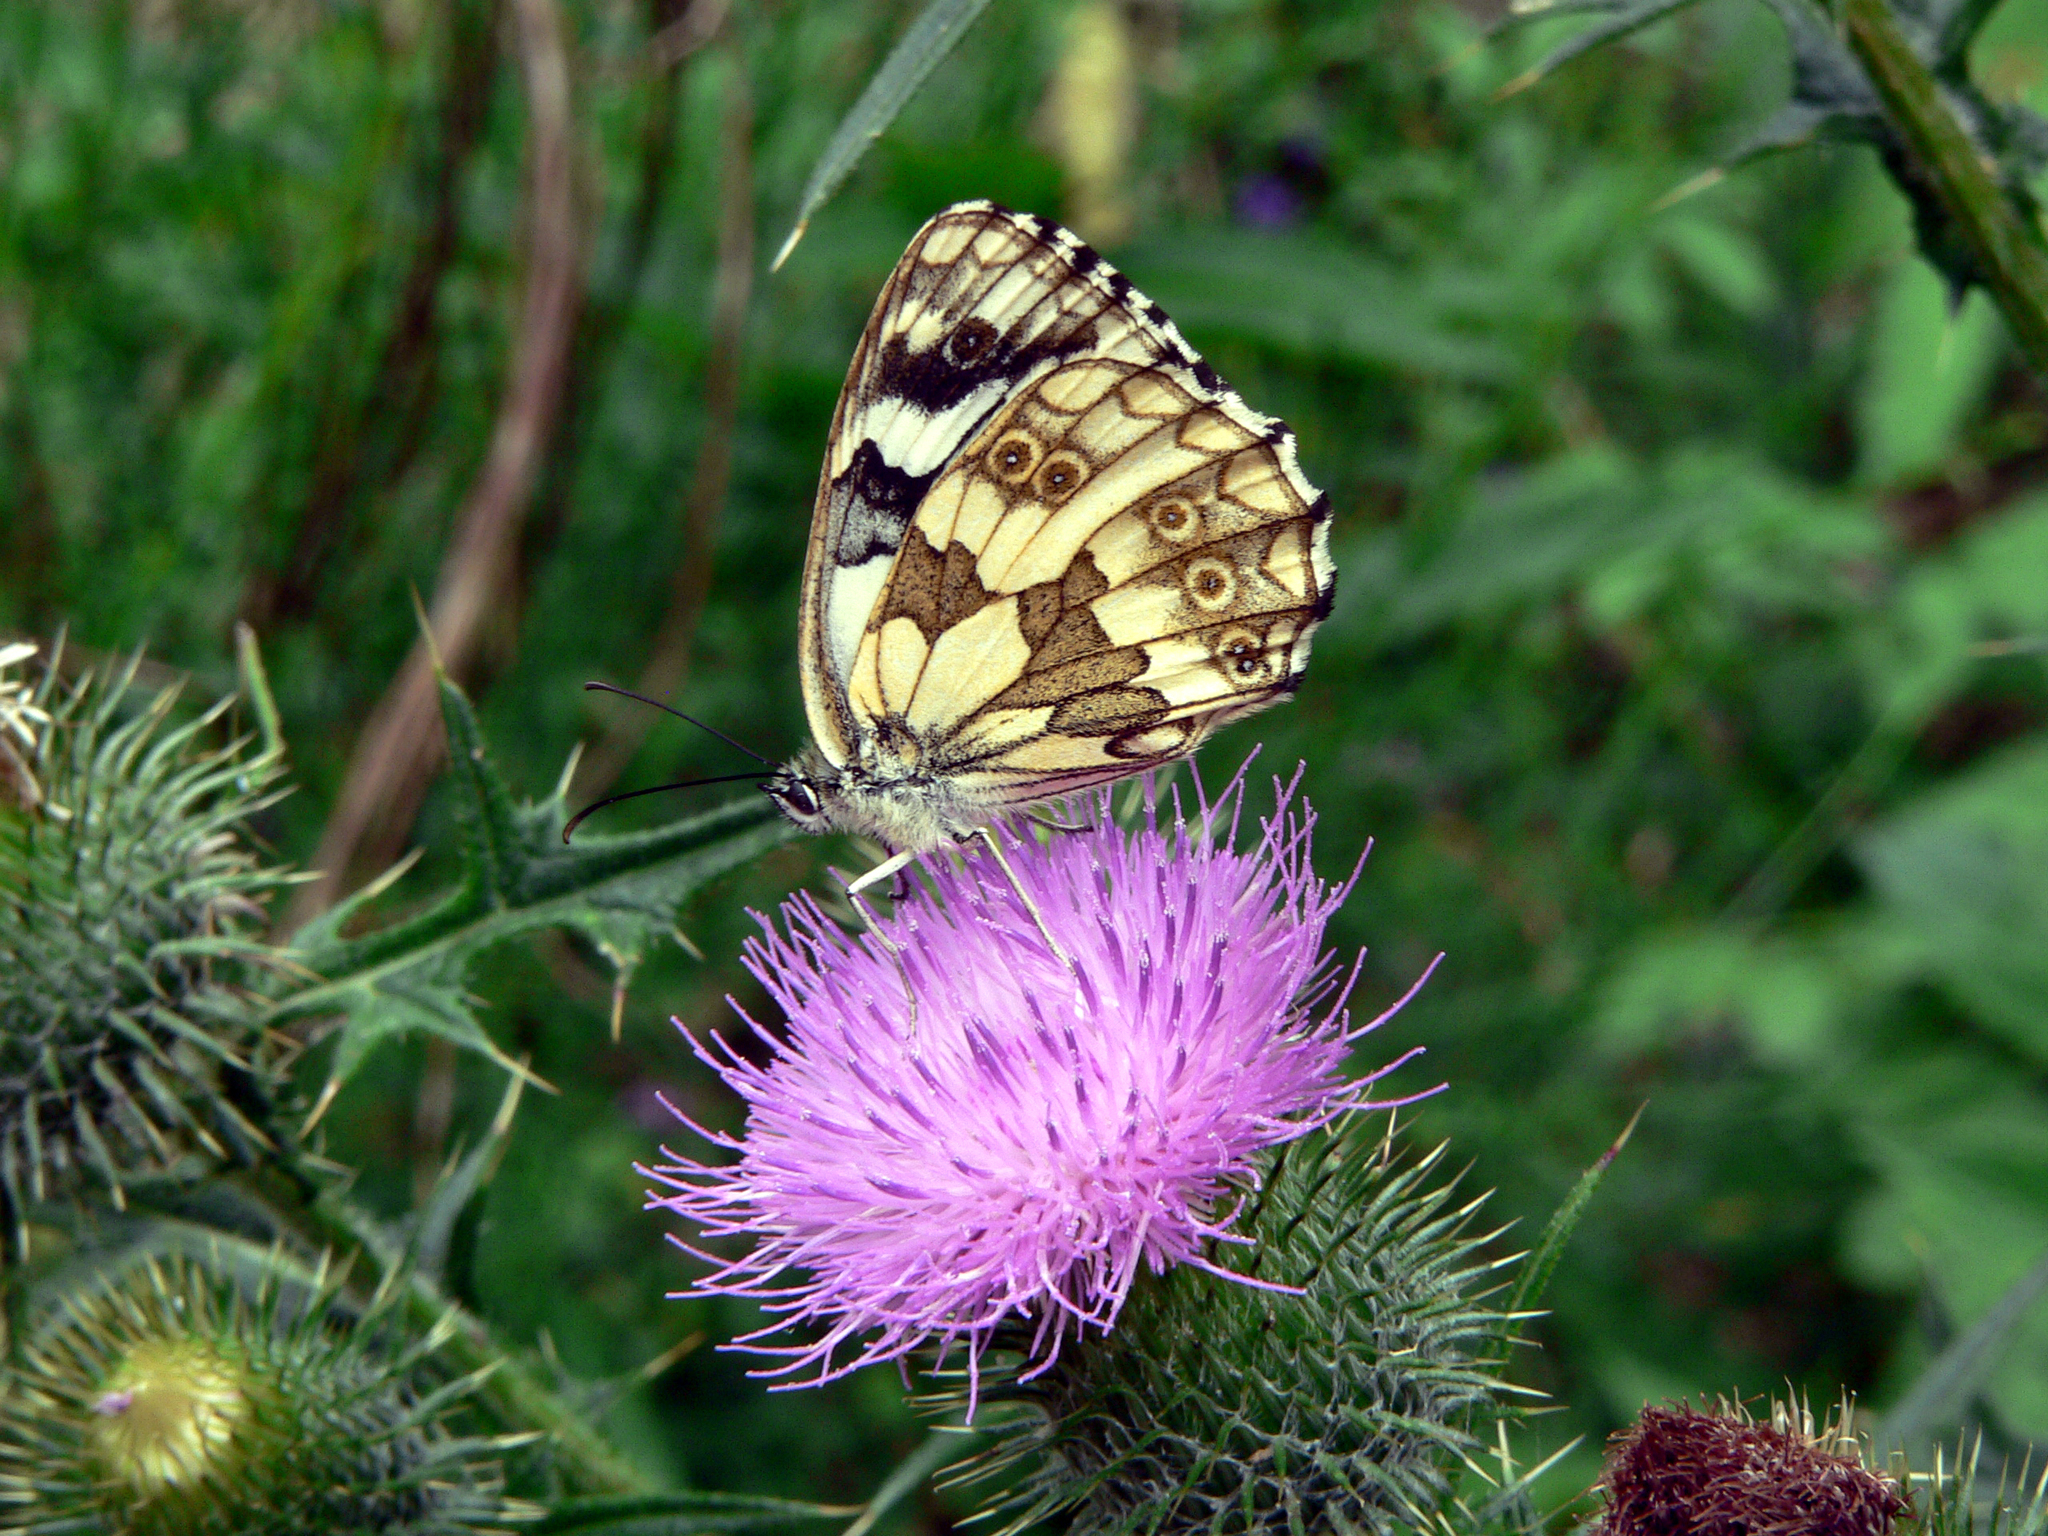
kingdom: Animalia
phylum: Arthropoda
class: Insecta
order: Lepidoptera
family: Nymphalidae
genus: Melanargia
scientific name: Melanargia galathea
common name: Marbled white
